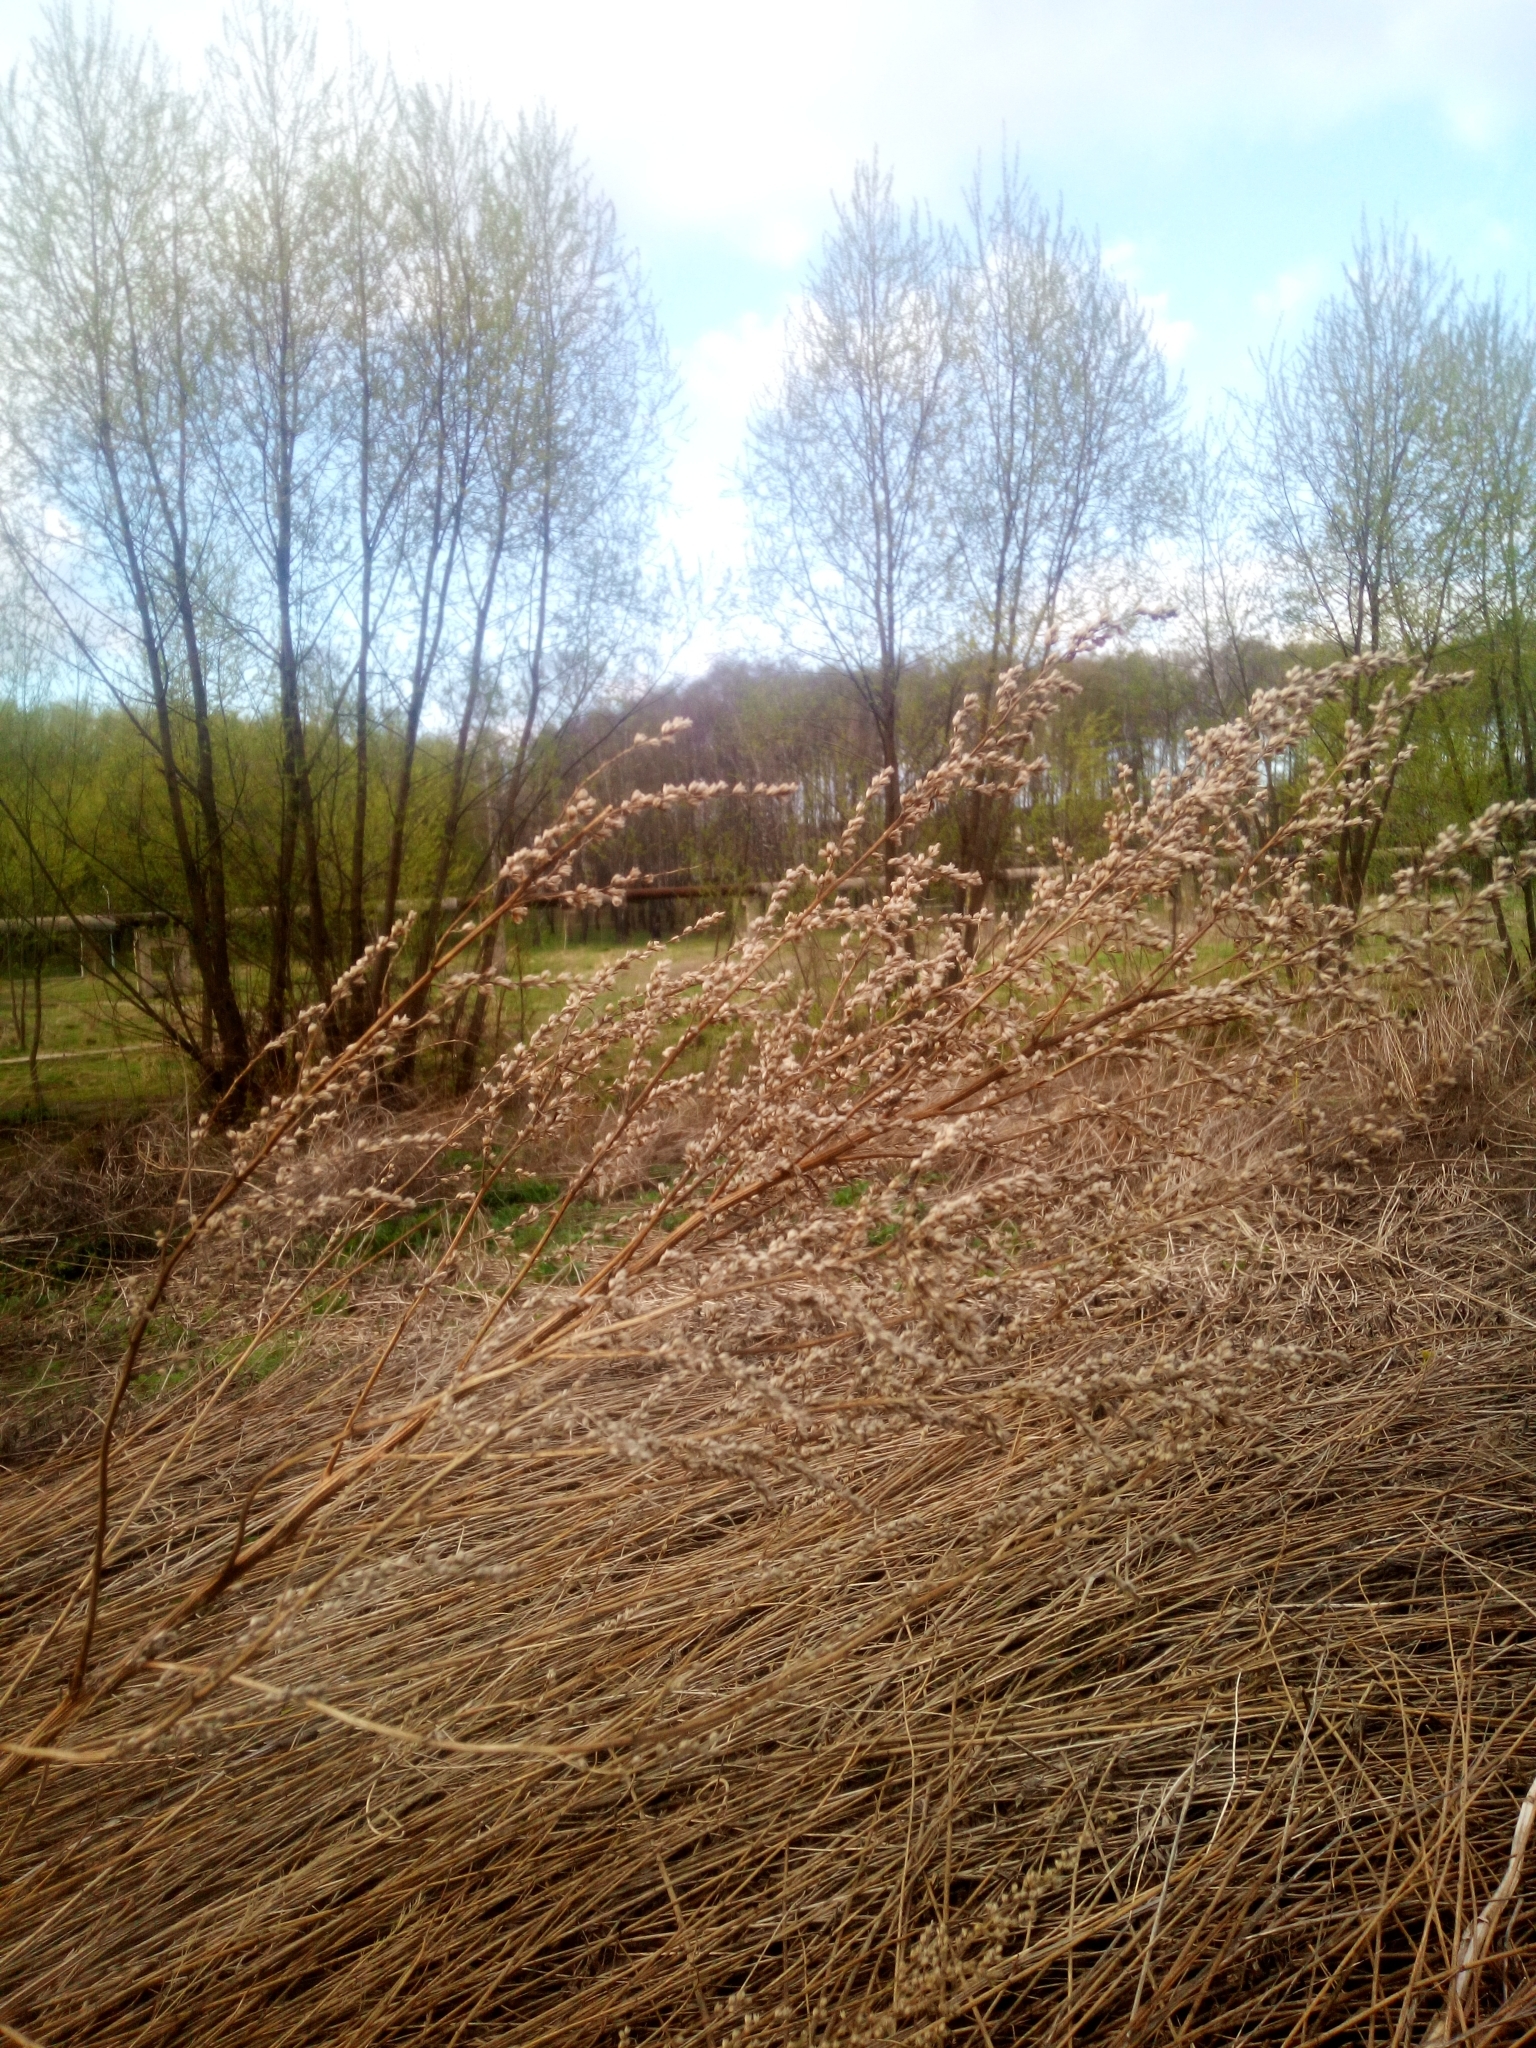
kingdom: Plantae
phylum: Tracheophyta
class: Magnoliopsida
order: Asterales
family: Asteraceae
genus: Artemisia
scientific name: Artemisia vulgaris
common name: Mugwort
